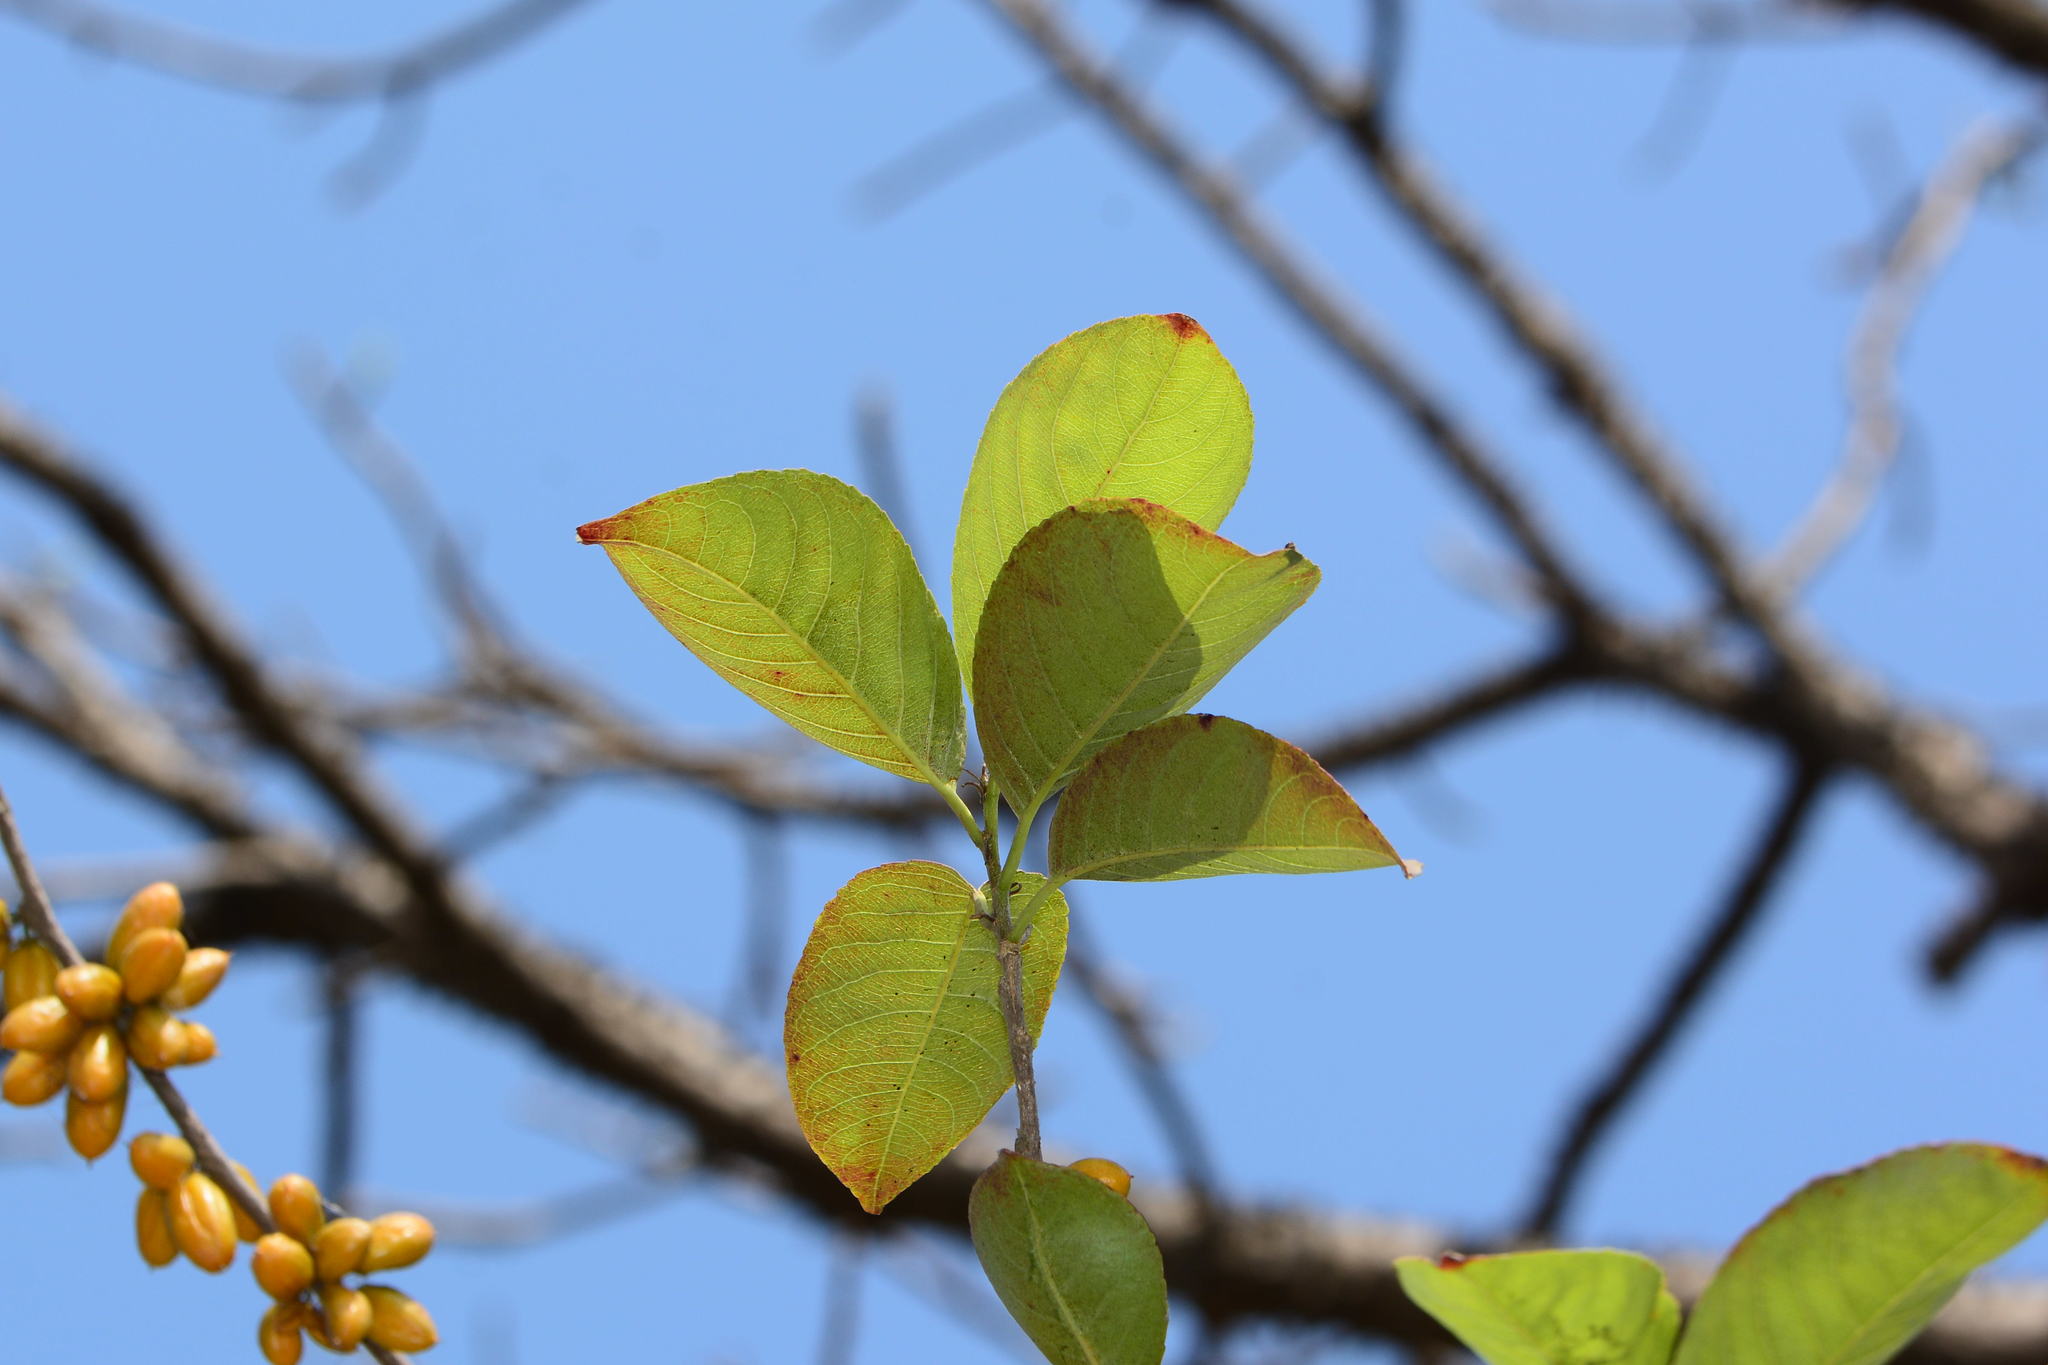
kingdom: Plantae
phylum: Tracheophyta
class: Magnoliopsida
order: Malpighiales
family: Salicaceae
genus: Casearia
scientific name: Casearia graveolens
